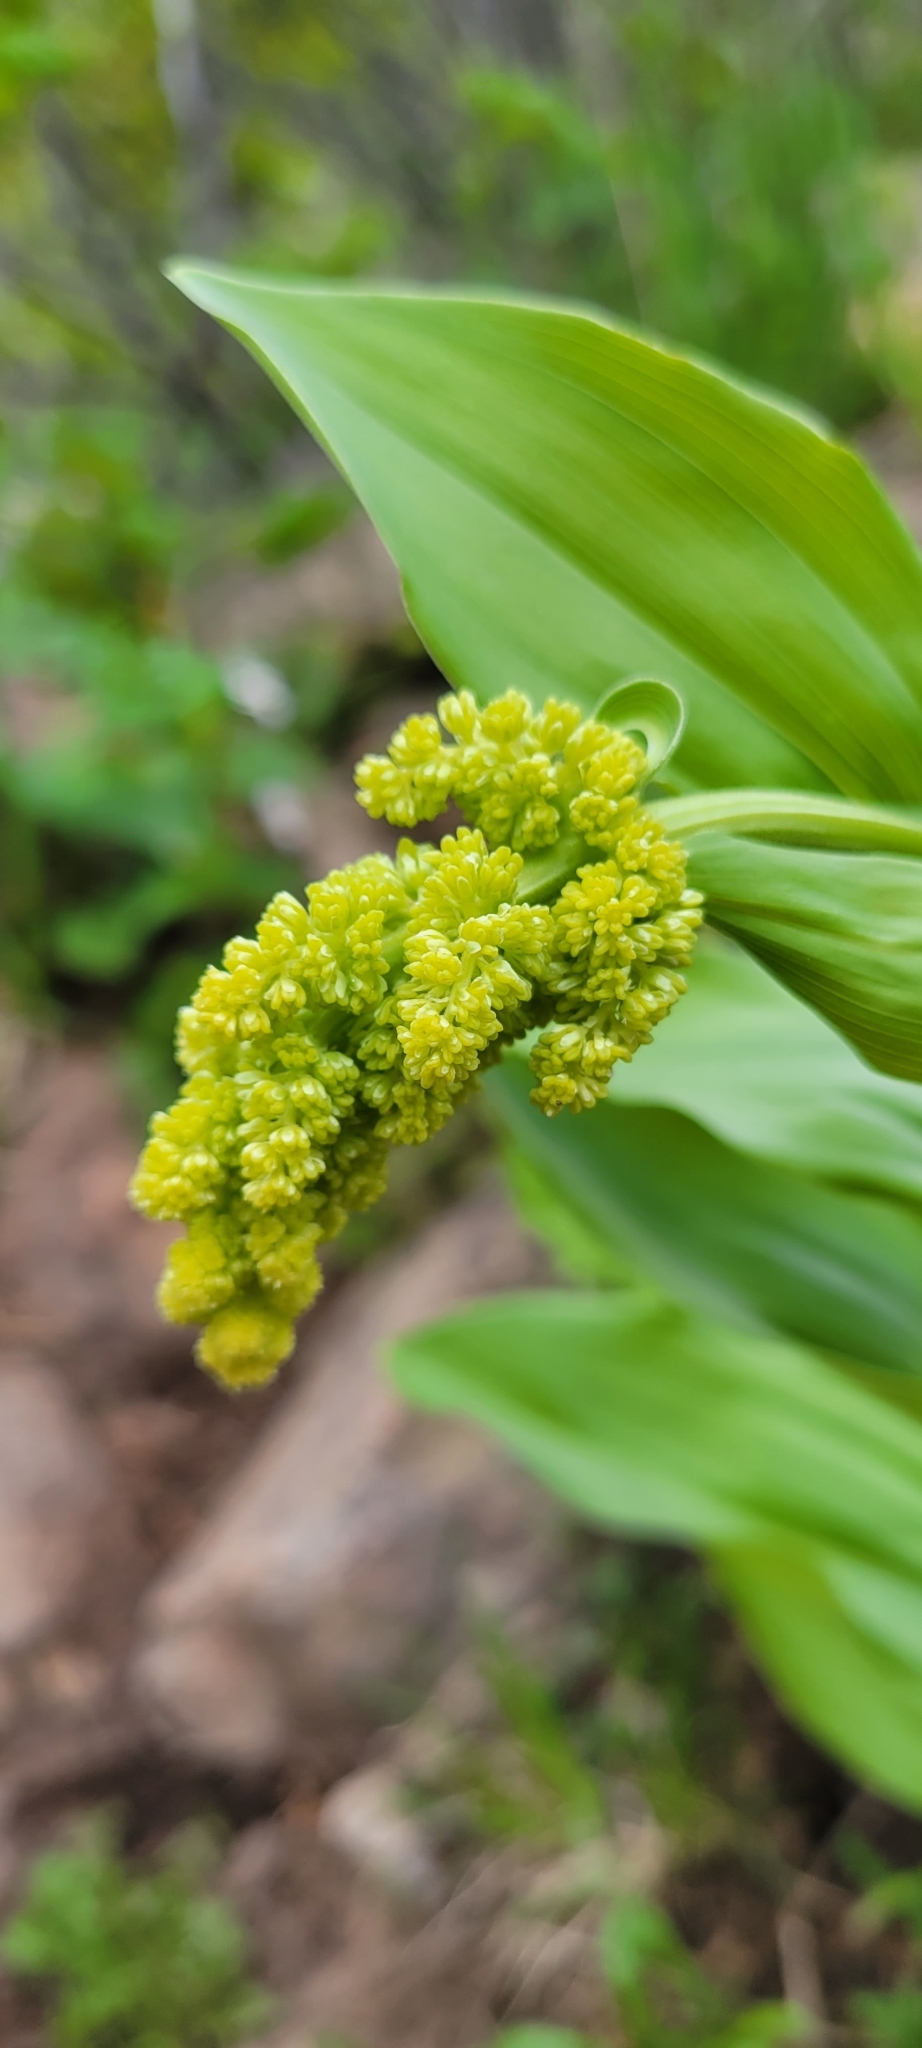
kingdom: Plantae
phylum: Tracheophyta
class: Liliopsida
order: Asparagales
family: Asparagaceae
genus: Maianthemum
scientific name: Maianthemum racemosum
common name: False spikenard
